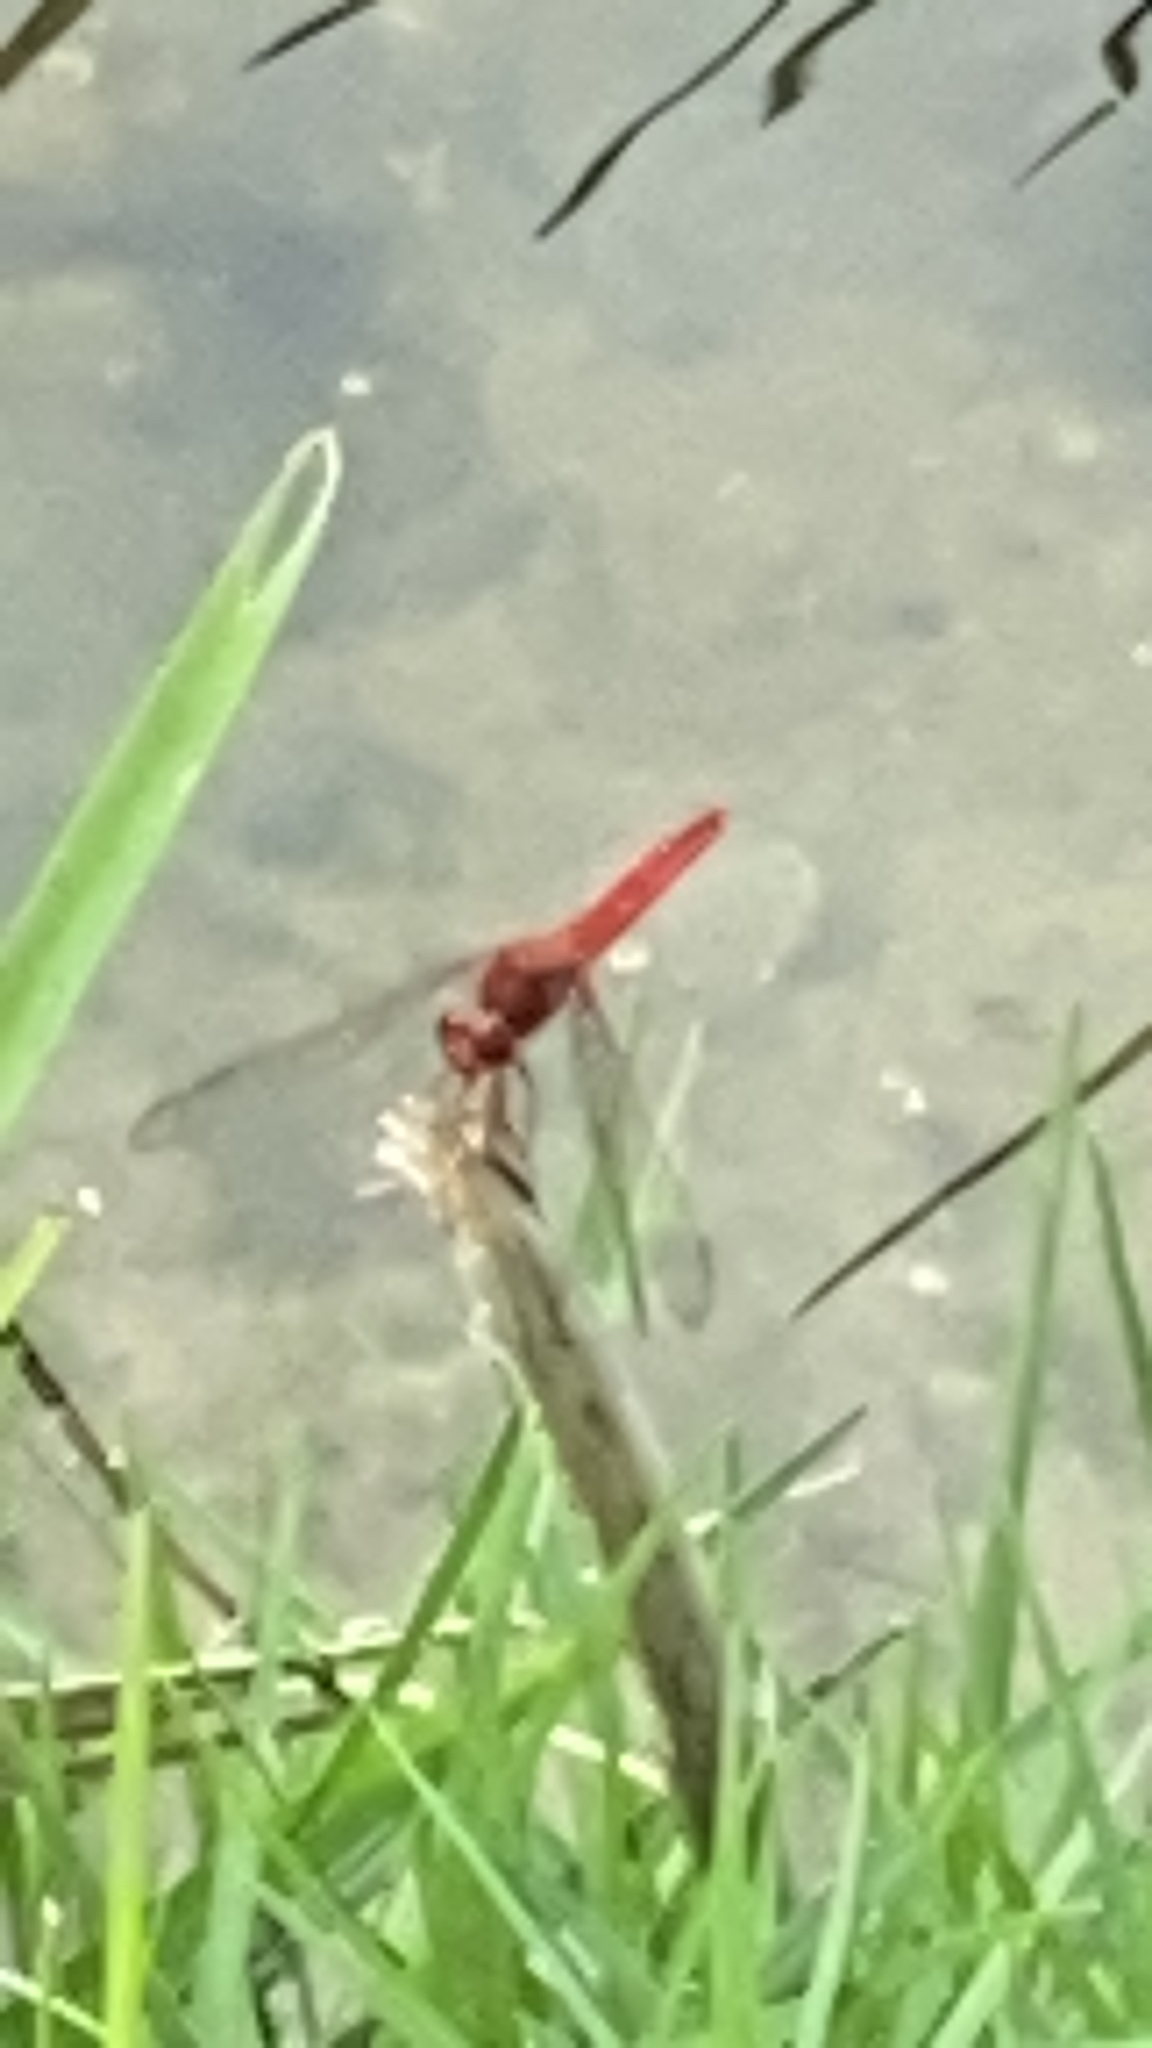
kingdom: Animalia
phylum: Arthropoda
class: Insecta
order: Odonata
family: Libellulidae
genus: Crocothemis
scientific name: Crocothemis servilia
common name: Scarlet skimmer
